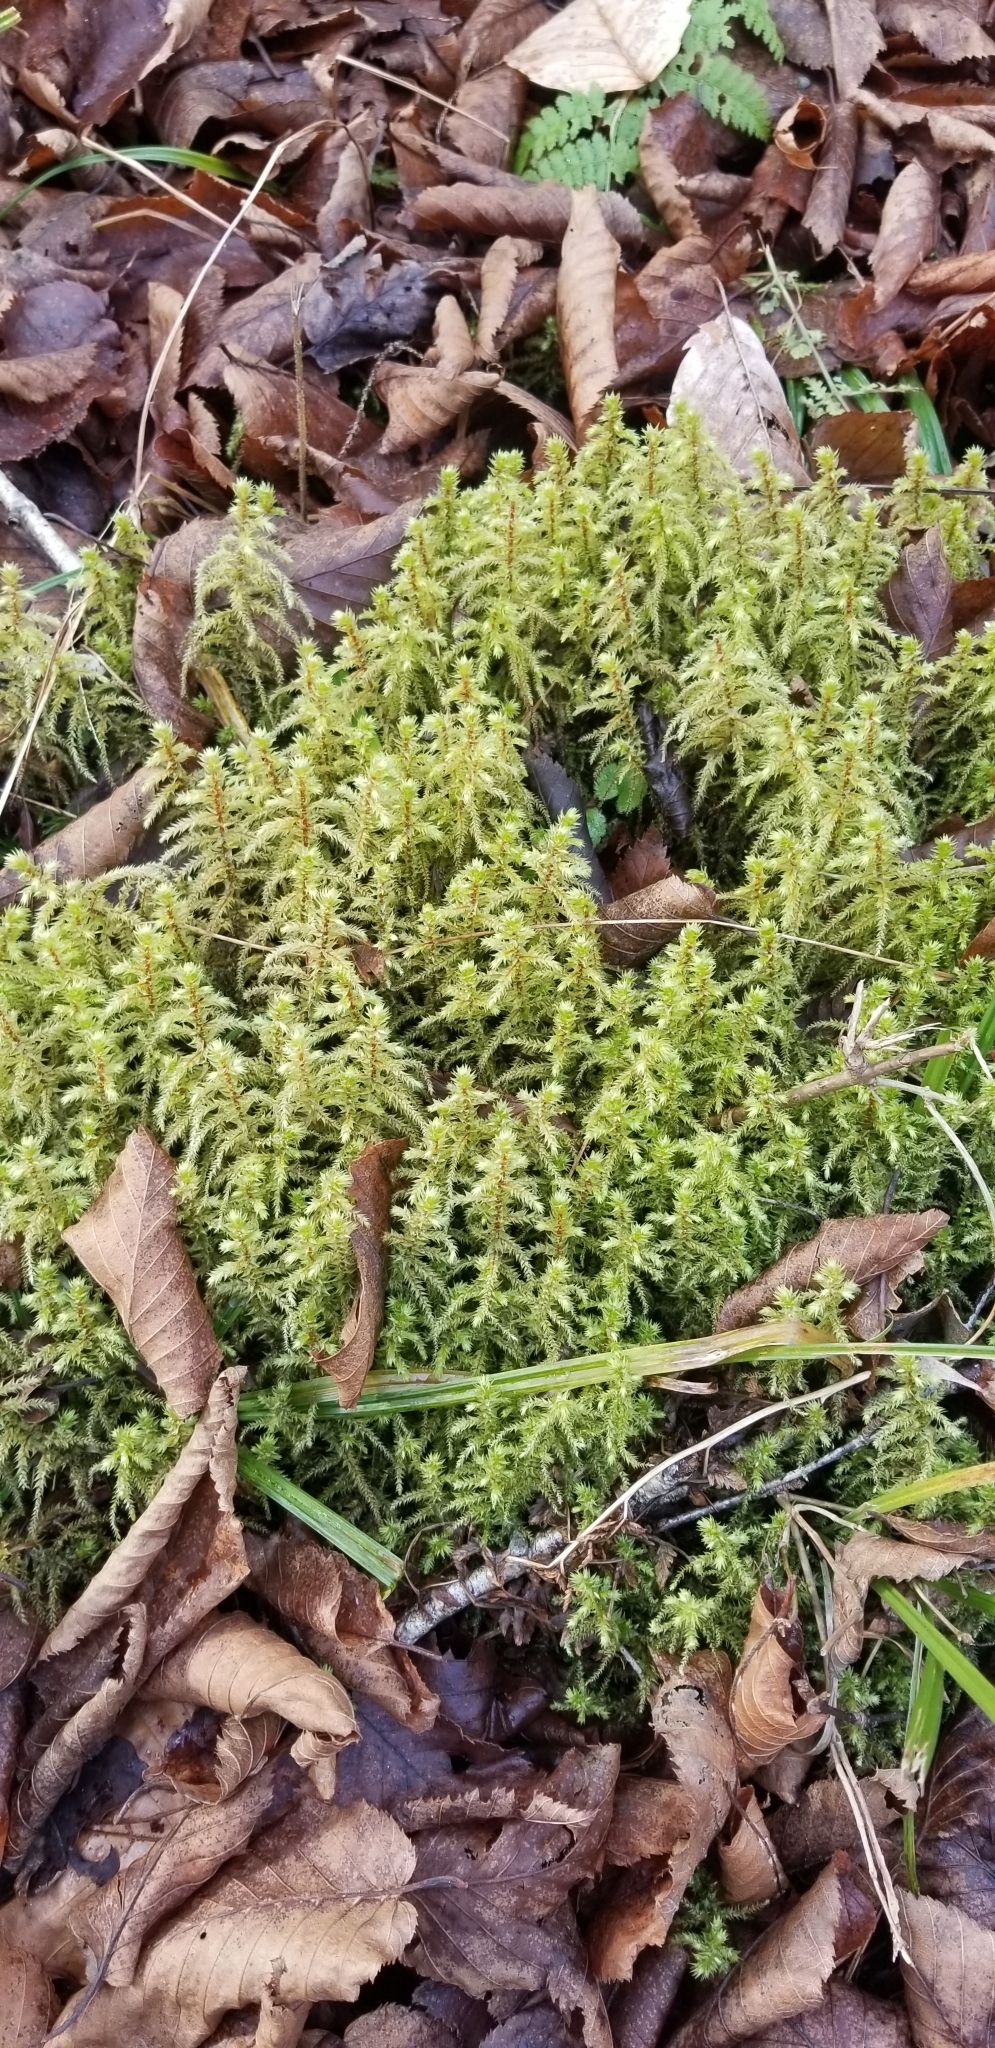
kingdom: Plantae
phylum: Bryophyta
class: Bryopsida
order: Hypnales
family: Hylocomiaceae
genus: Hylocomiadelphus
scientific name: Hylocomiadelphus triquetrus
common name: Rough goose neck moss
